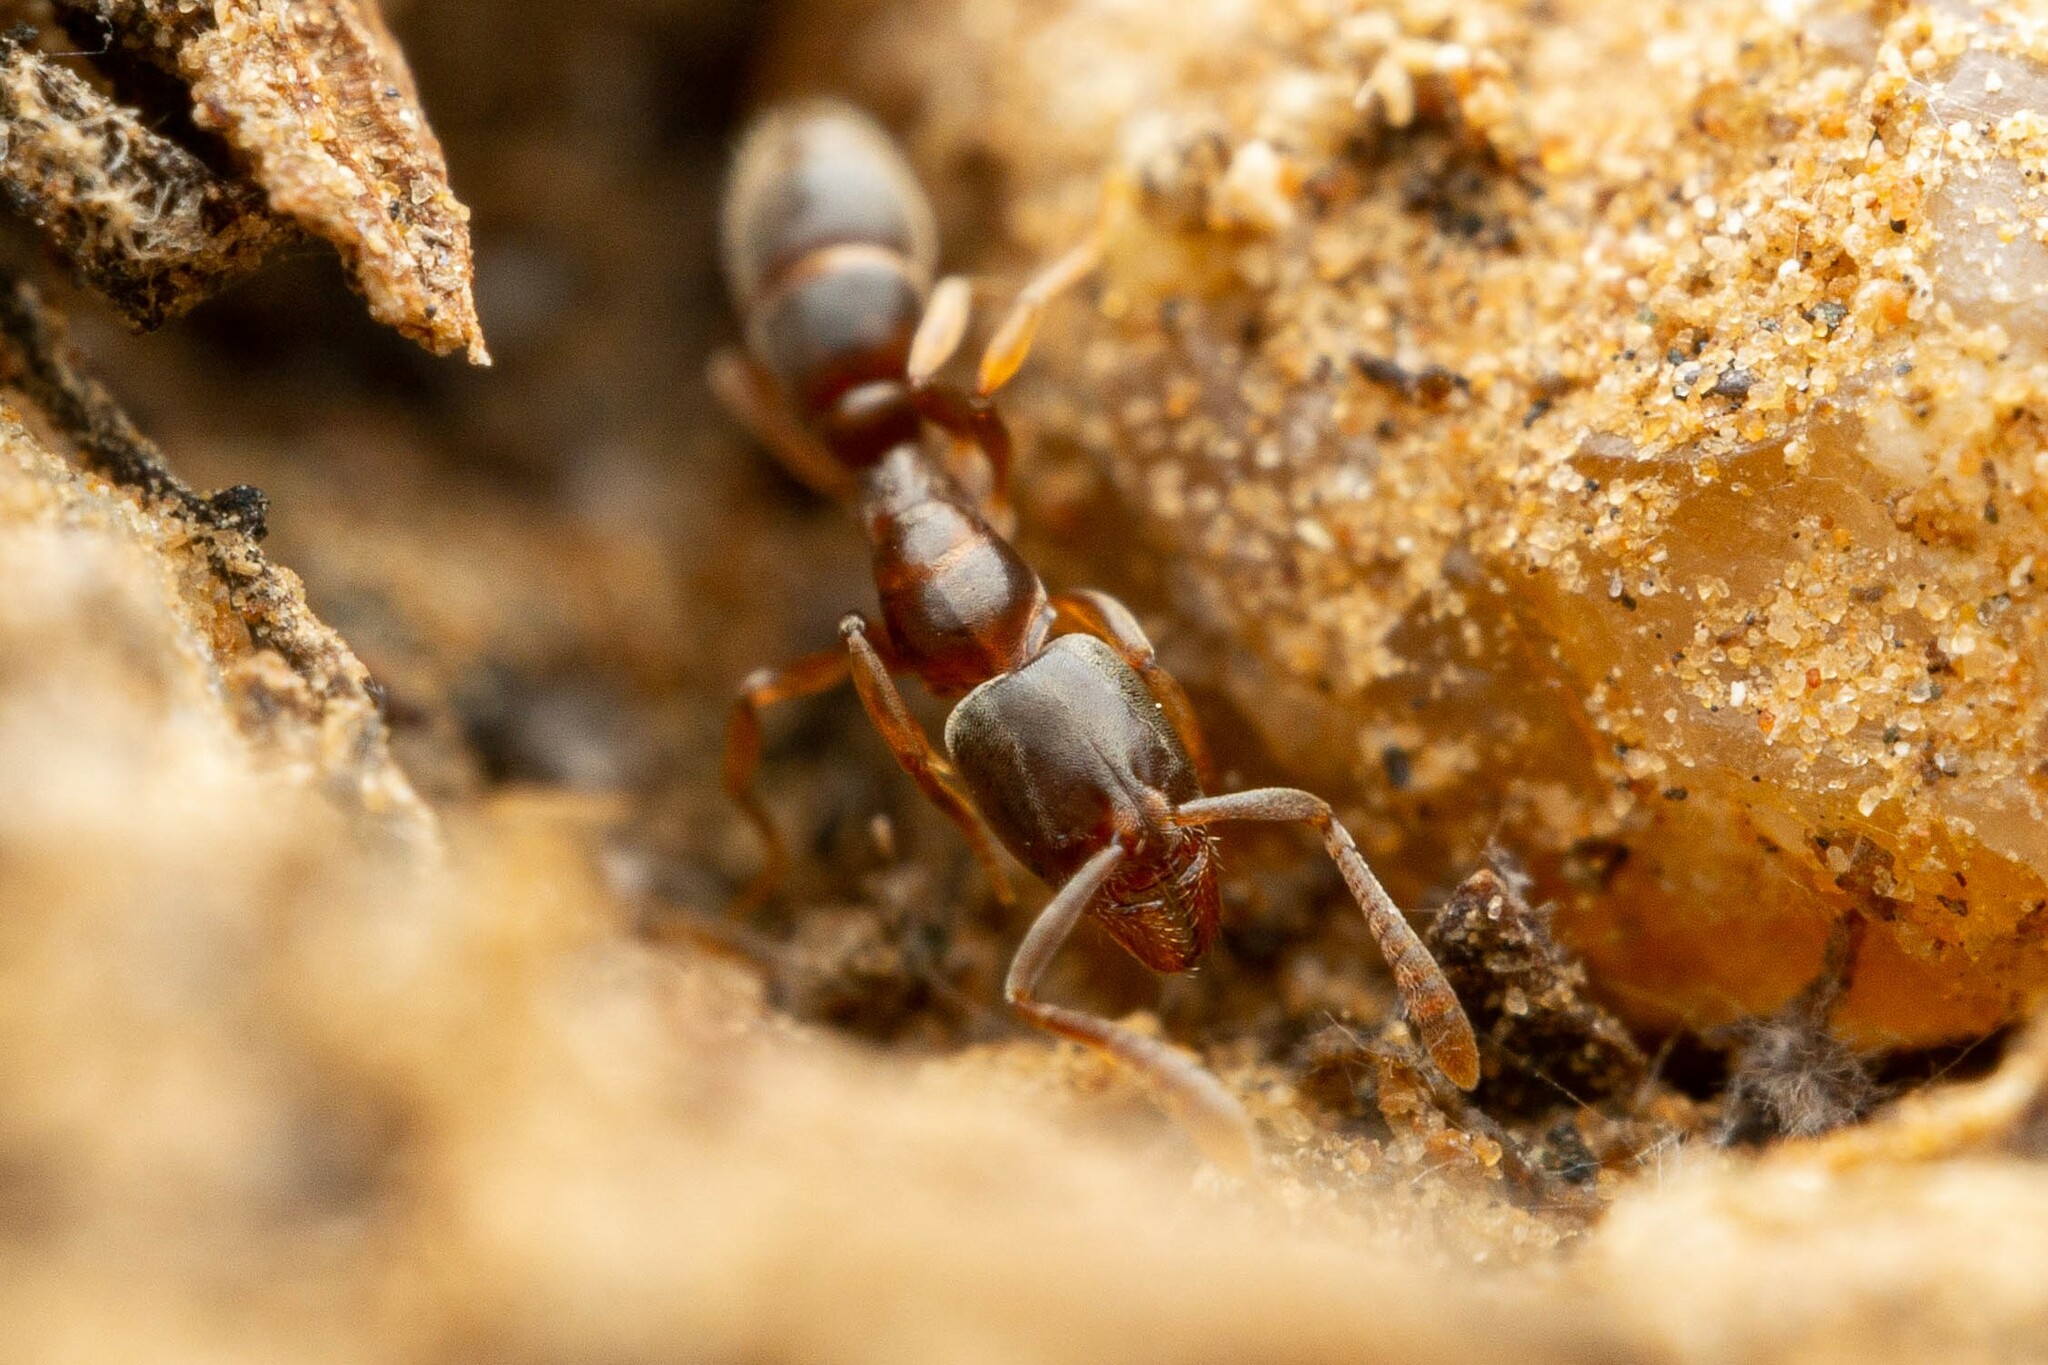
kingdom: Animalia
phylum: Arthropoda
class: Insecta
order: Hymenoptera
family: Formicidae
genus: Hypoponera
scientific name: Hypoponera opacior
